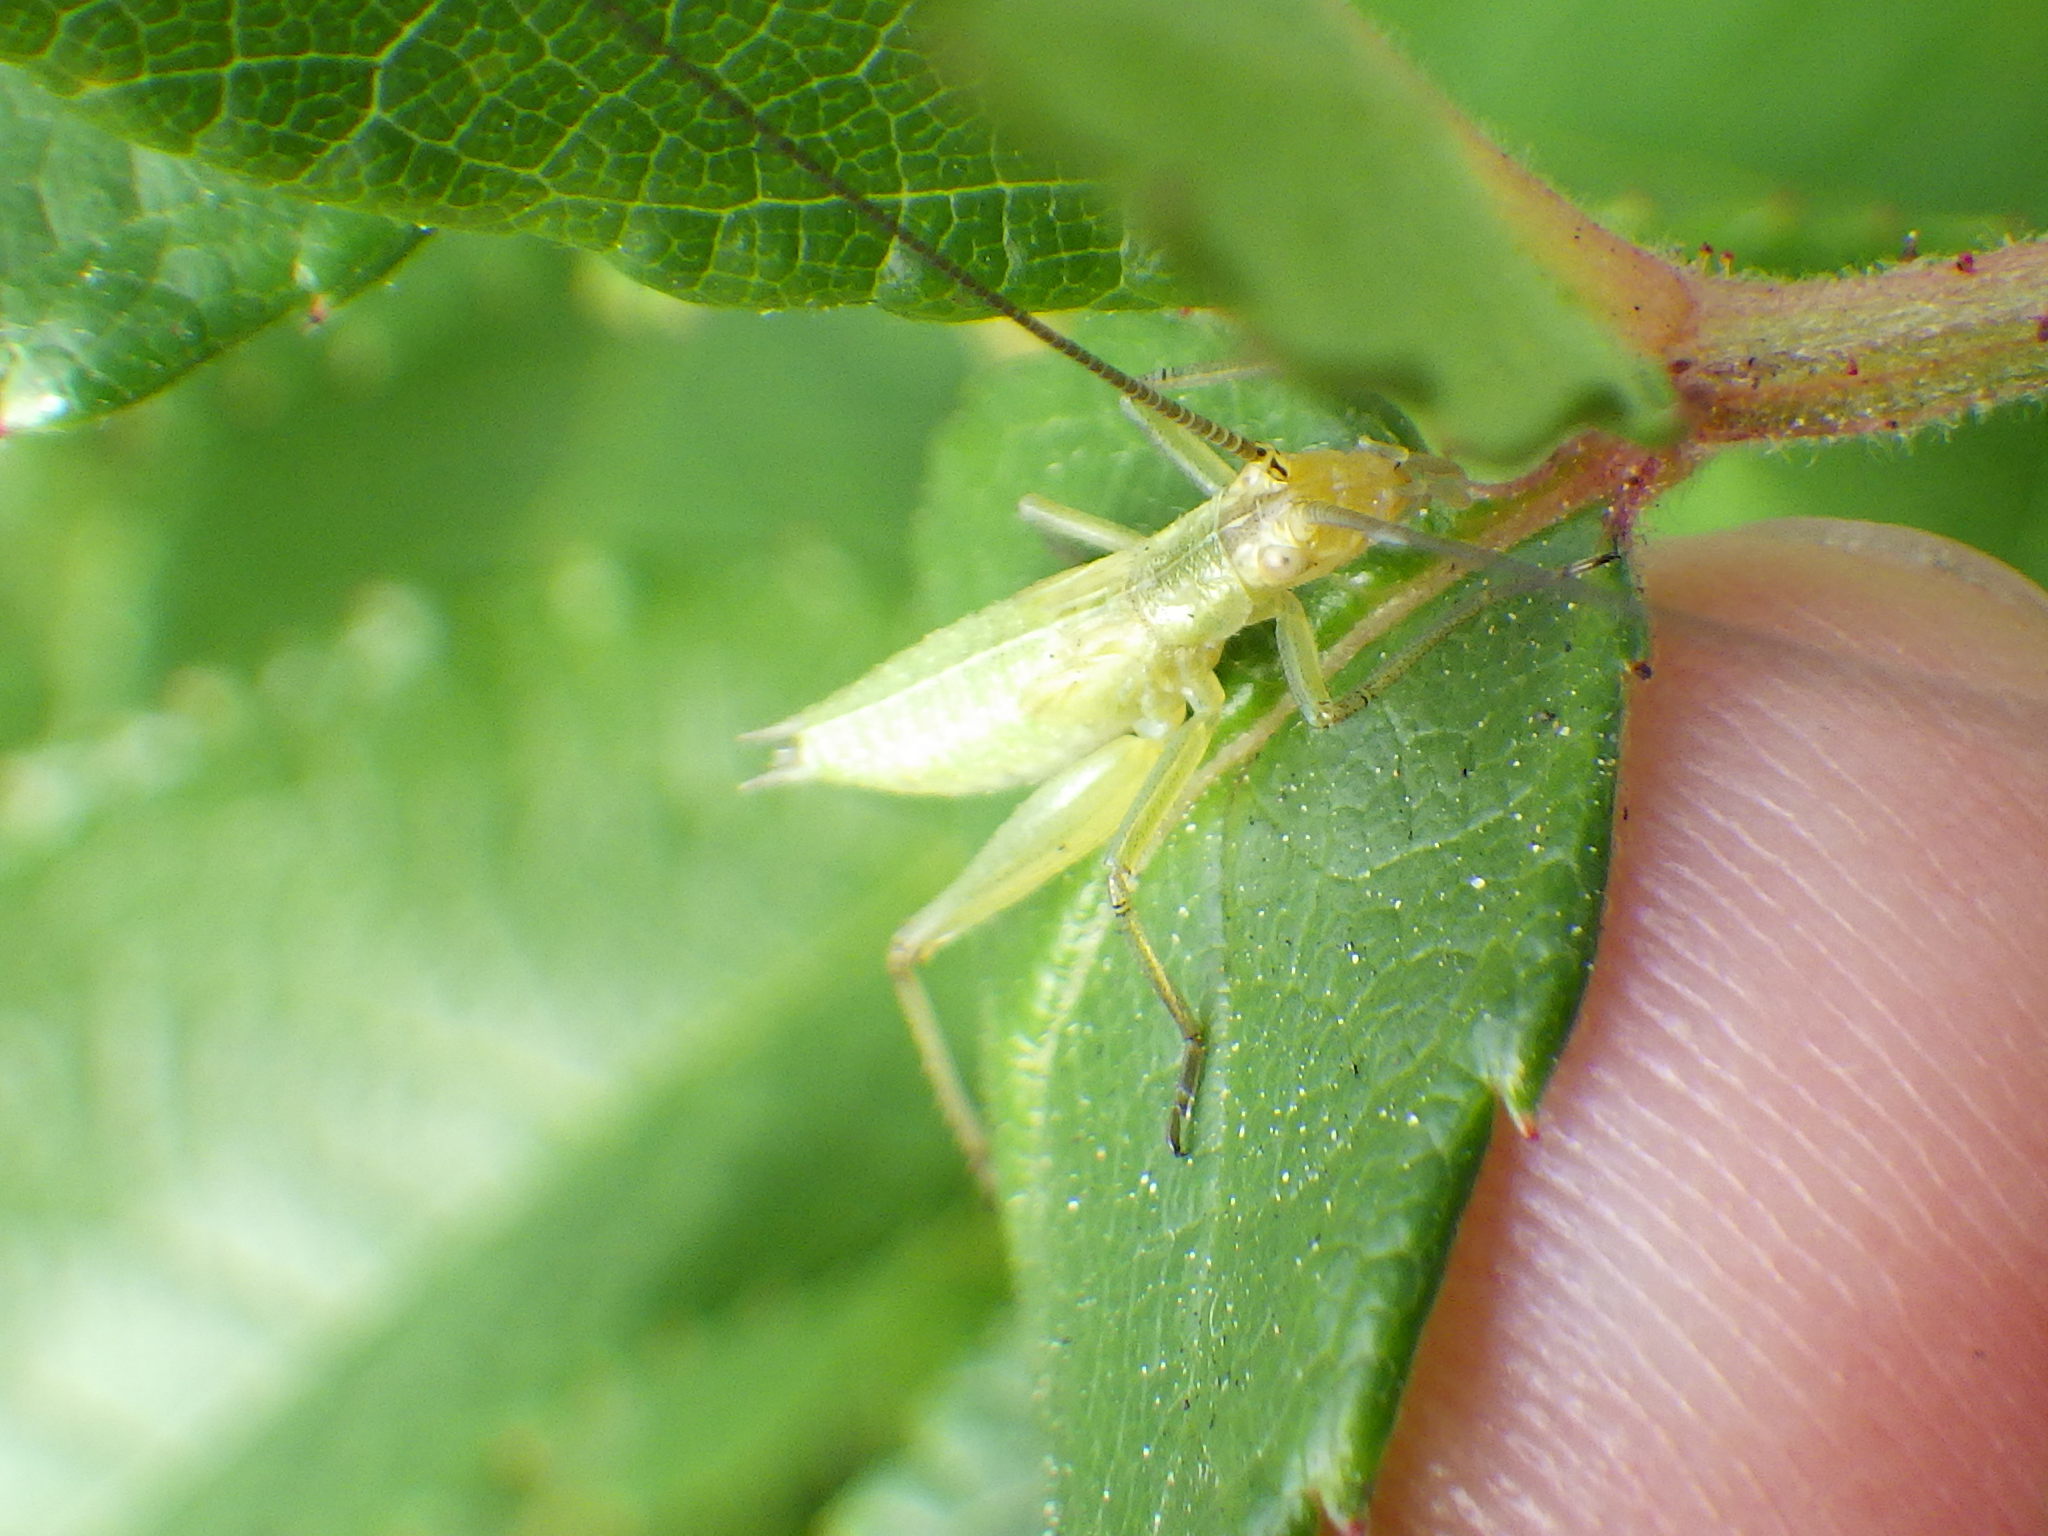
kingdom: Animalia
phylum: Arthropoda
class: Insecta
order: Orthoptera
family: Gryllidae
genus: Oecanthus
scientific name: Oecanthus nigricornis
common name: Black-horned tree cricket
